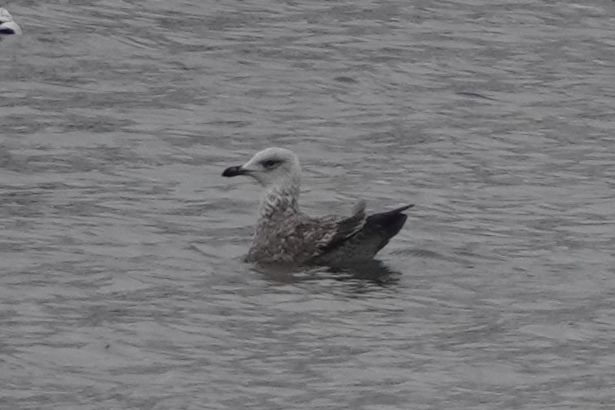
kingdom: Animalia
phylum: Chordata
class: Aves
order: Charadriiformes
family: Laridae
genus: Larus
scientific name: Larus argentatus
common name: Herring gull
